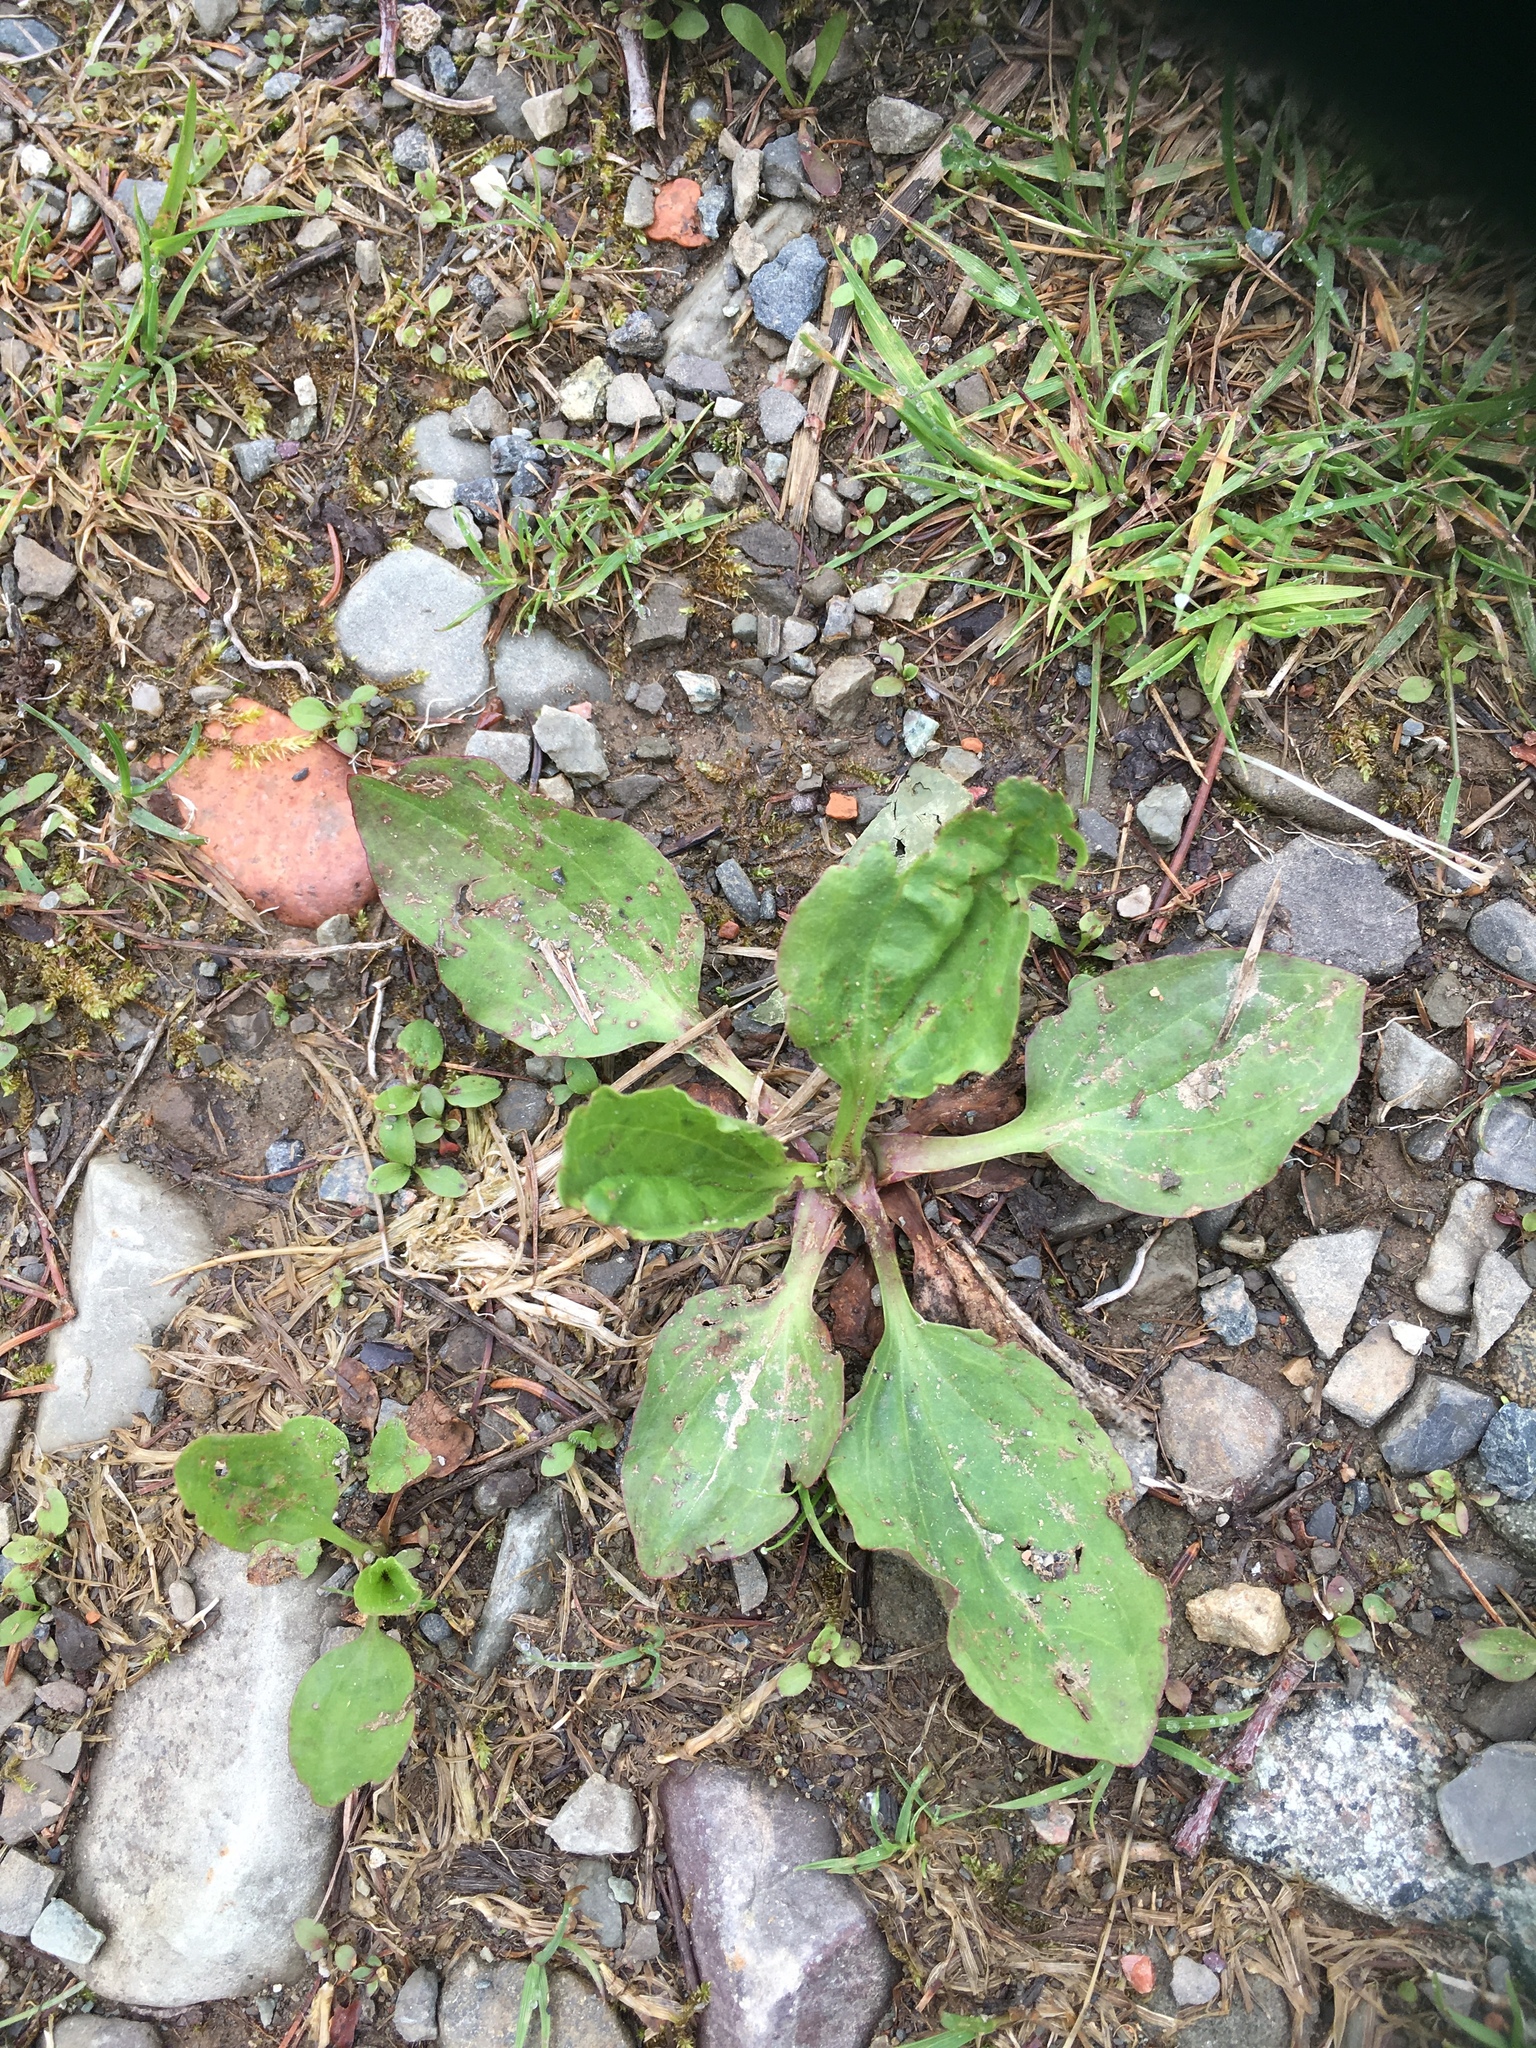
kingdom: Plantae
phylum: Tracheophyta
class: Magnoliopsida
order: Lamiales
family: Plantaginaceae
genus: Plantago
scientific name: Plantago major
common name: Common plantain
